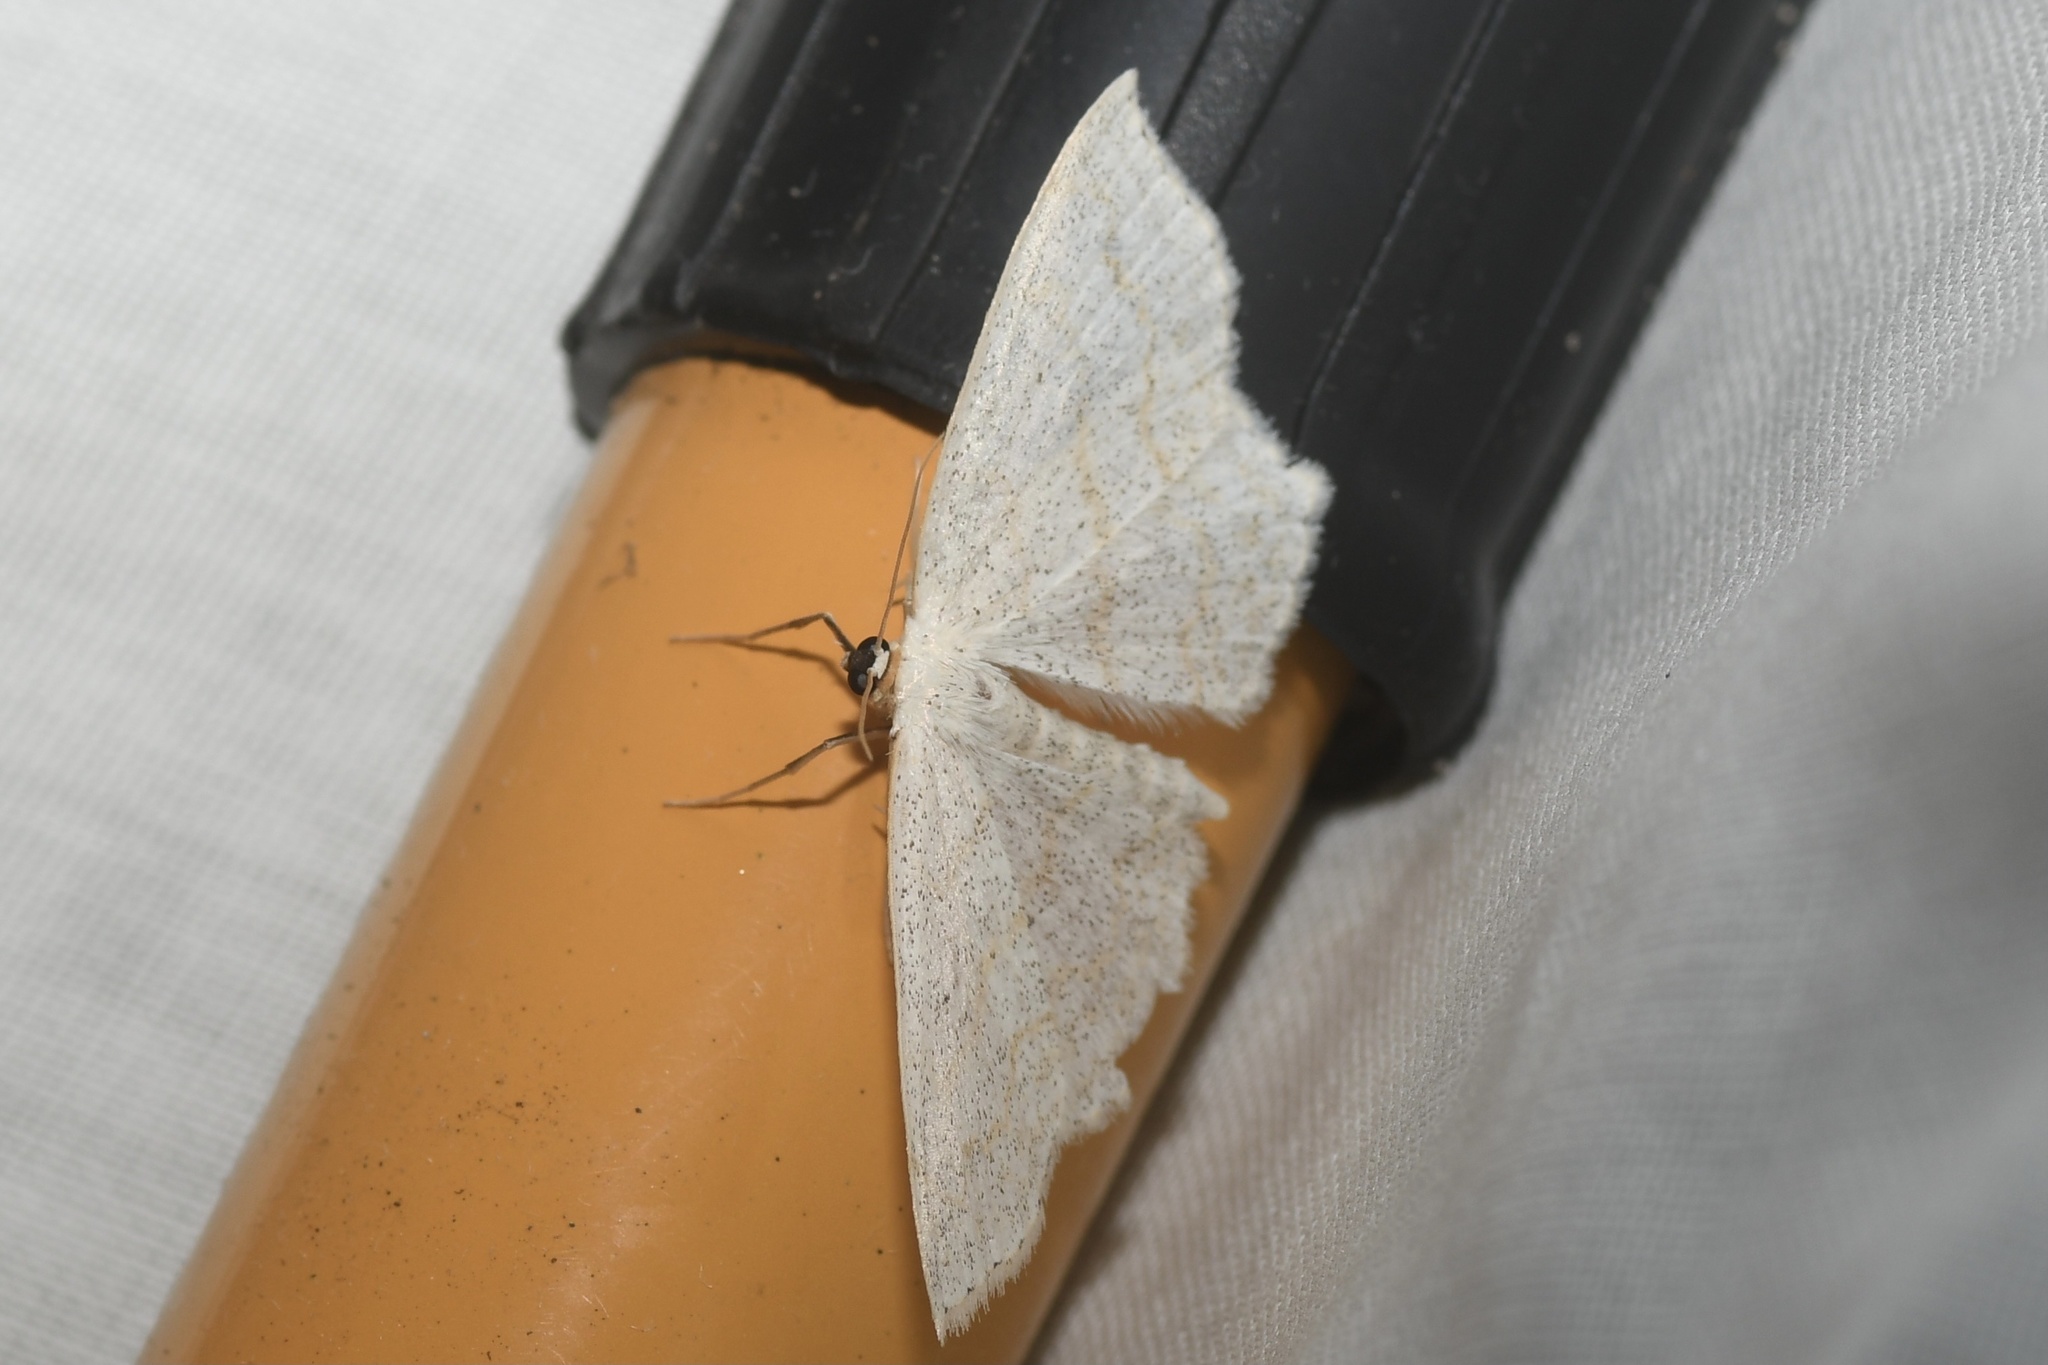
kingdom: Animalia
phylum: Arthropoda
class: Insecta
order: Lepidoptera
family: Geometridae
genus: Scopula
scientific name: Scopula junctaria
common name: Simple wave
